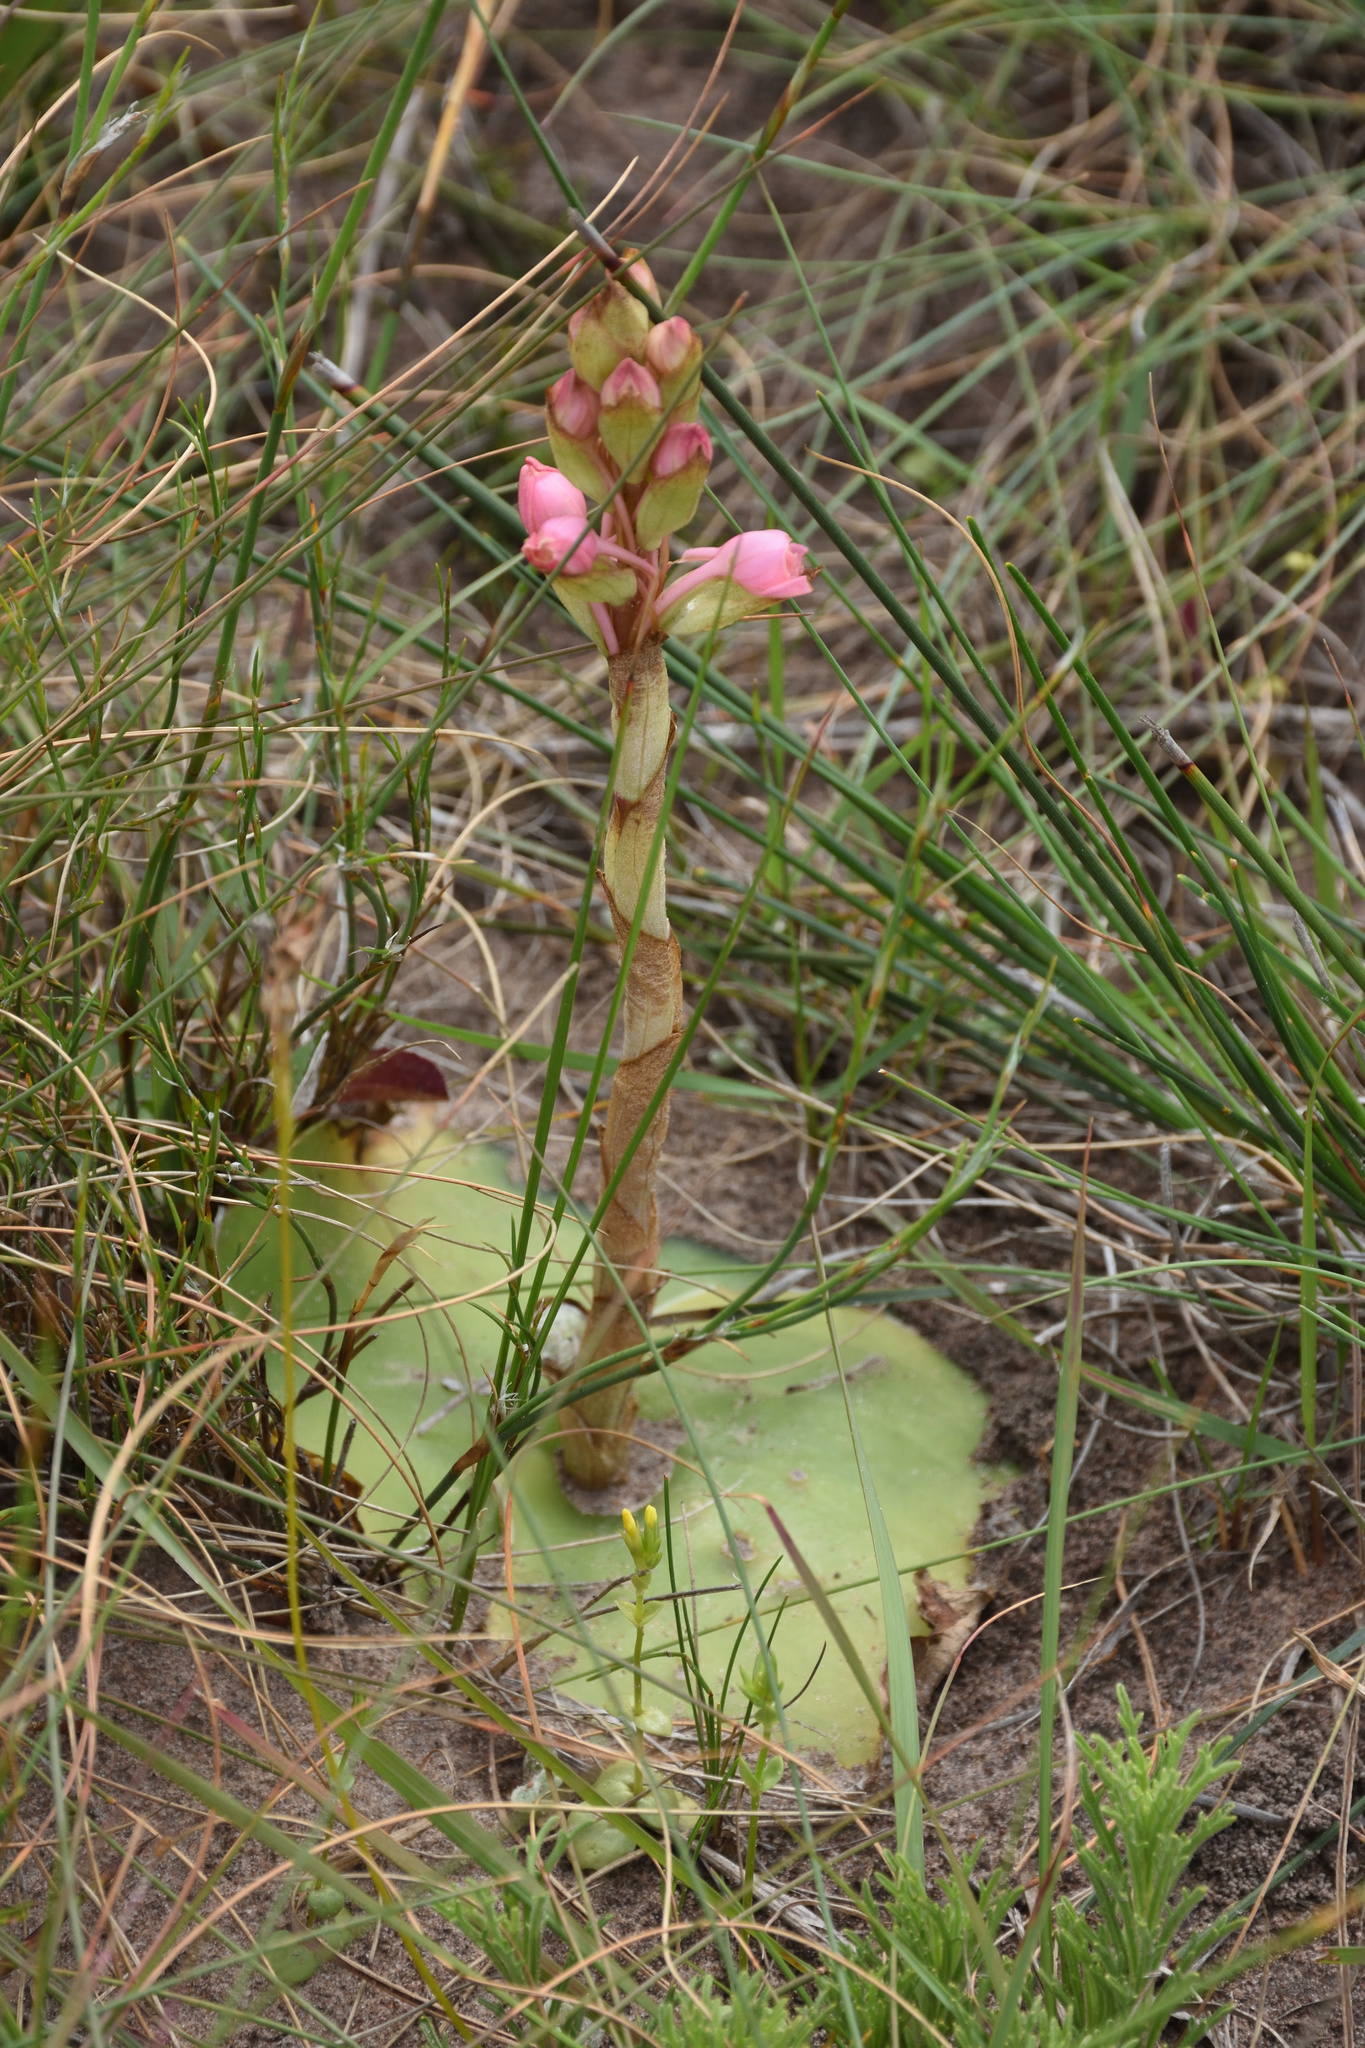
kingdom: Plantae
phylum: Tracheophyta
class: Liliopsida
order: Asparagales
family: Orchidaceae
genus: Satyrium
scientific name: Satyrium membranaceum
